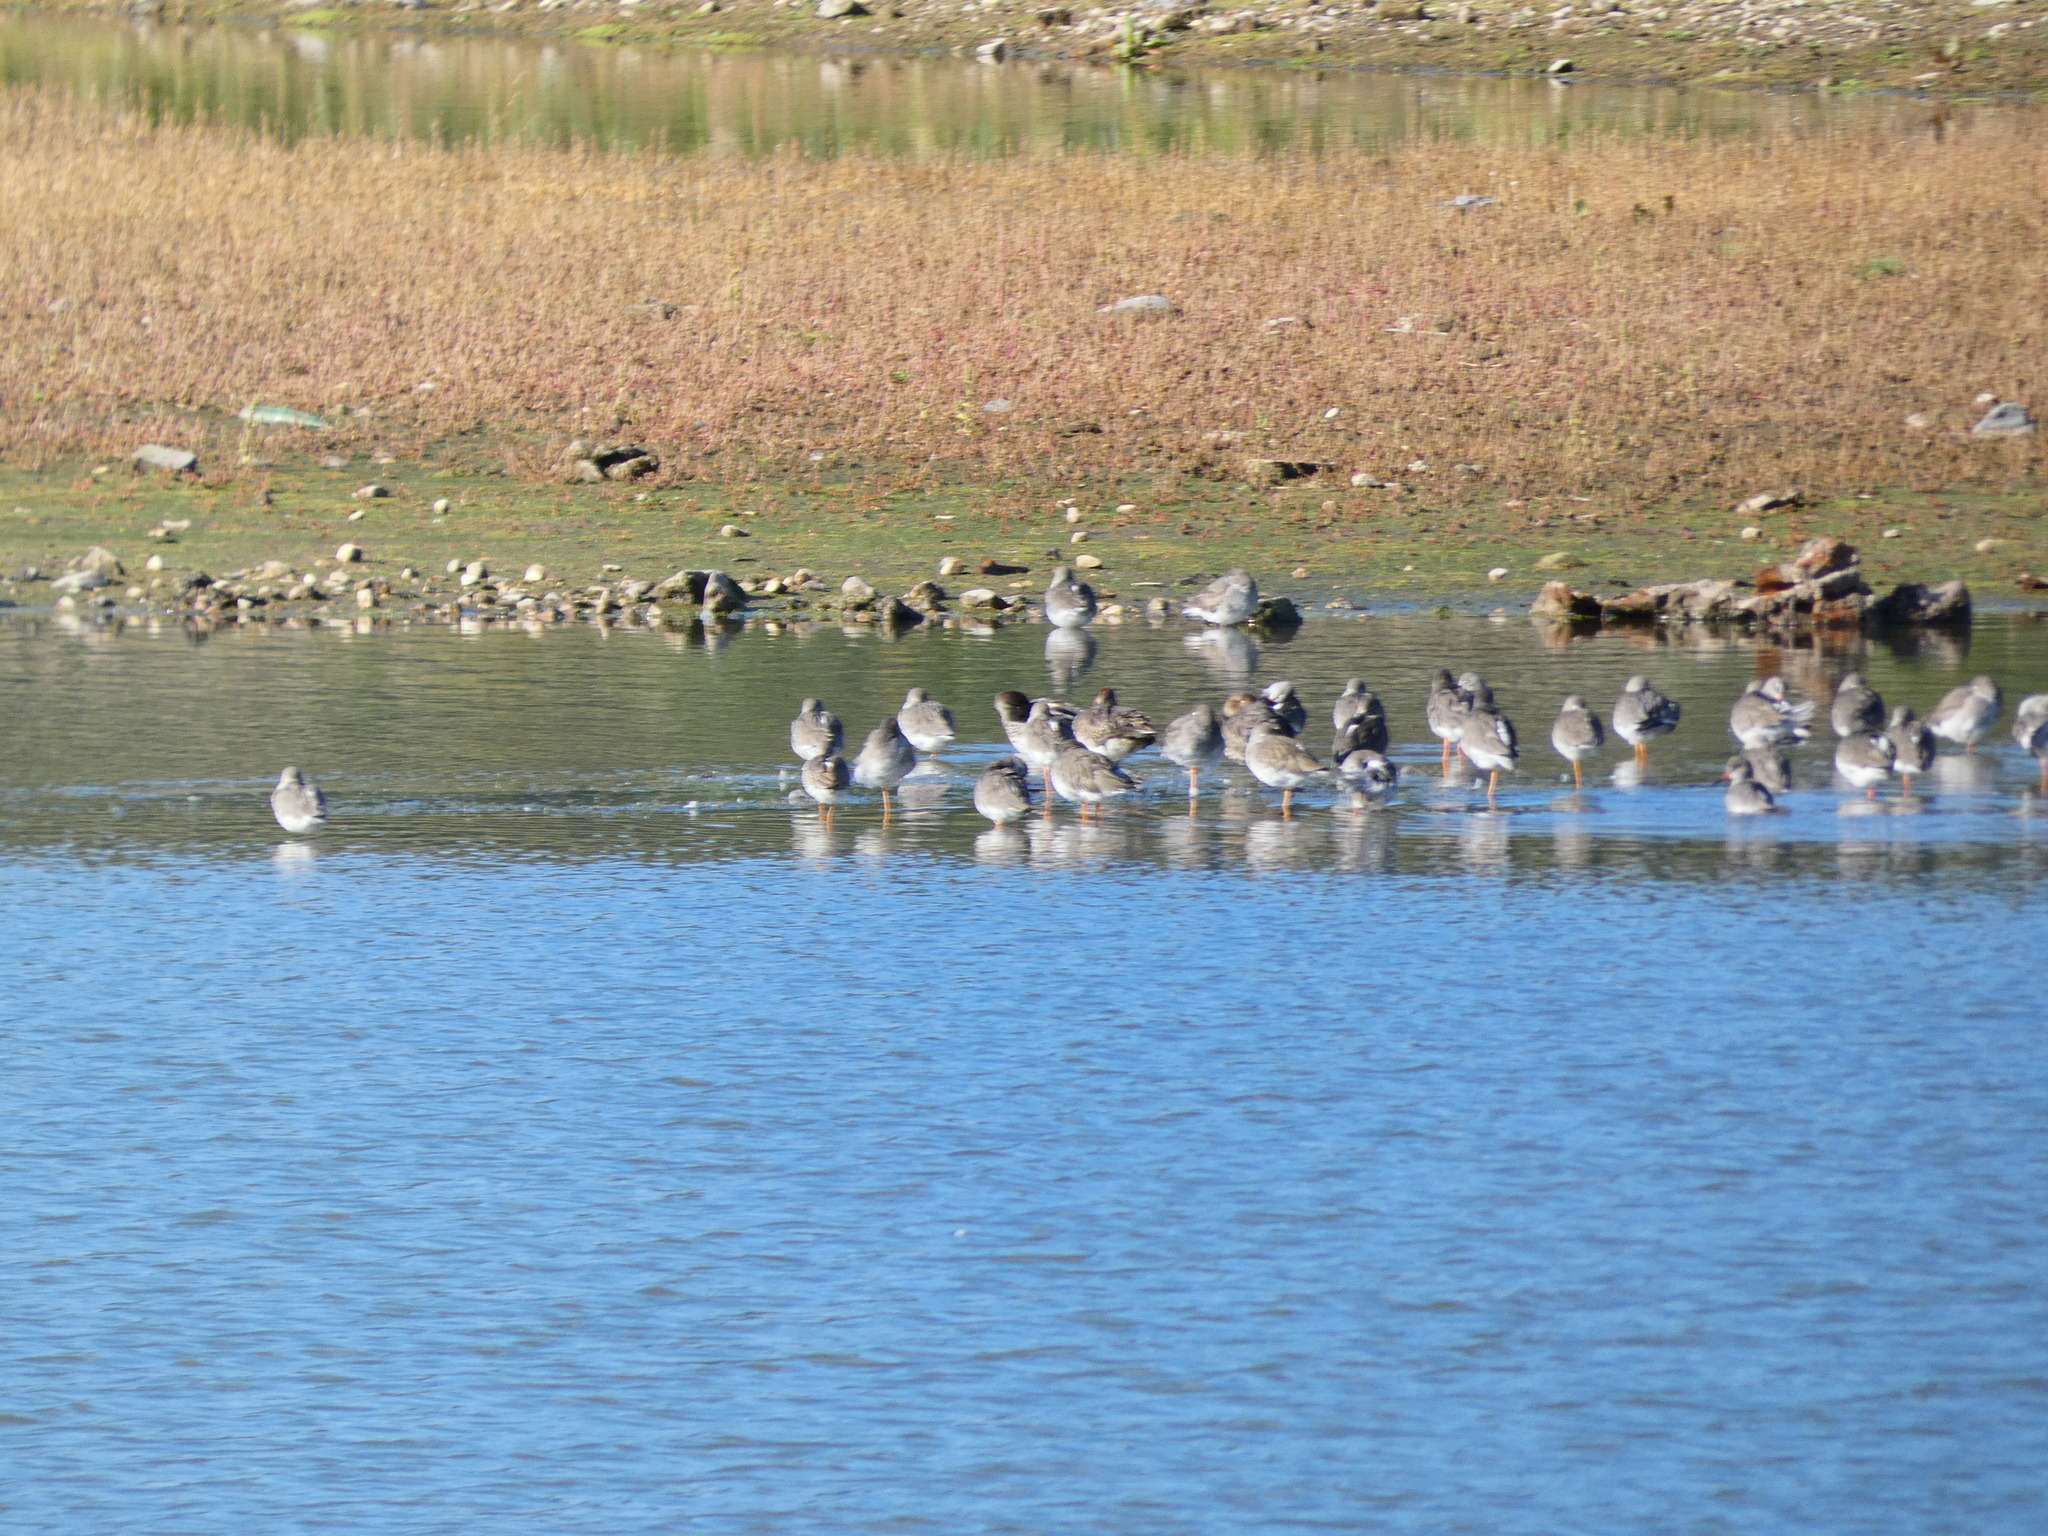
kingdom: Animalia
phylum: Chordata
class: Aves
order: Charadriiformes
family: Scolopacidae
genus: Tringa
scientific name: Tringa totanus
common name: Common redshank
